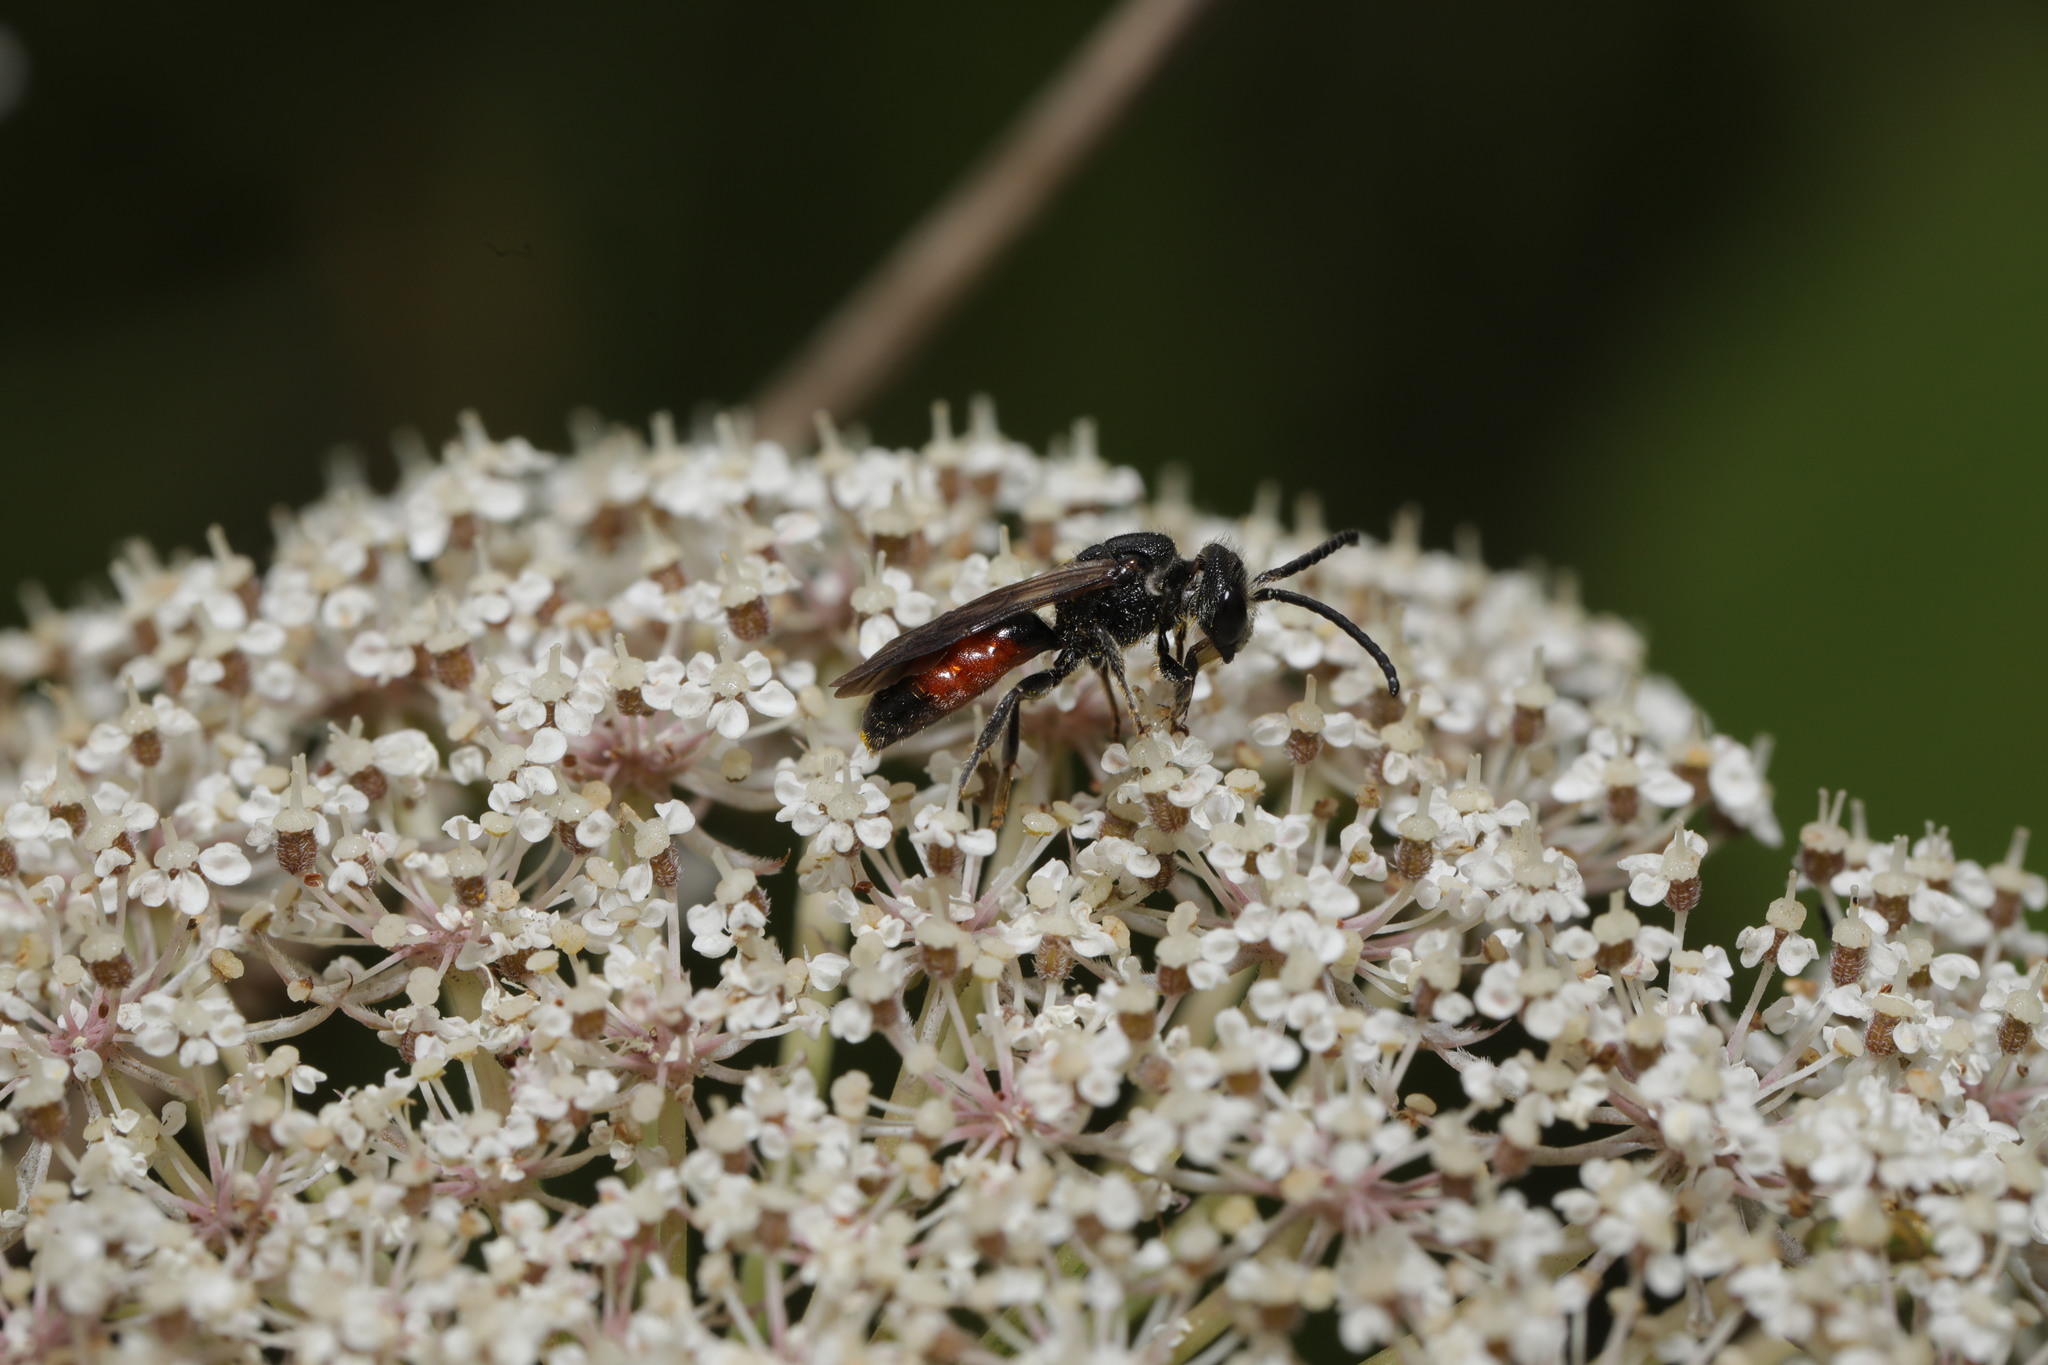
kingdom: Animalia
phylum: Arthropoda
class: Insecta
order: Hymenoptera
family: Halictidae
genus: Sphecodes
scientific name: Sphecodes
